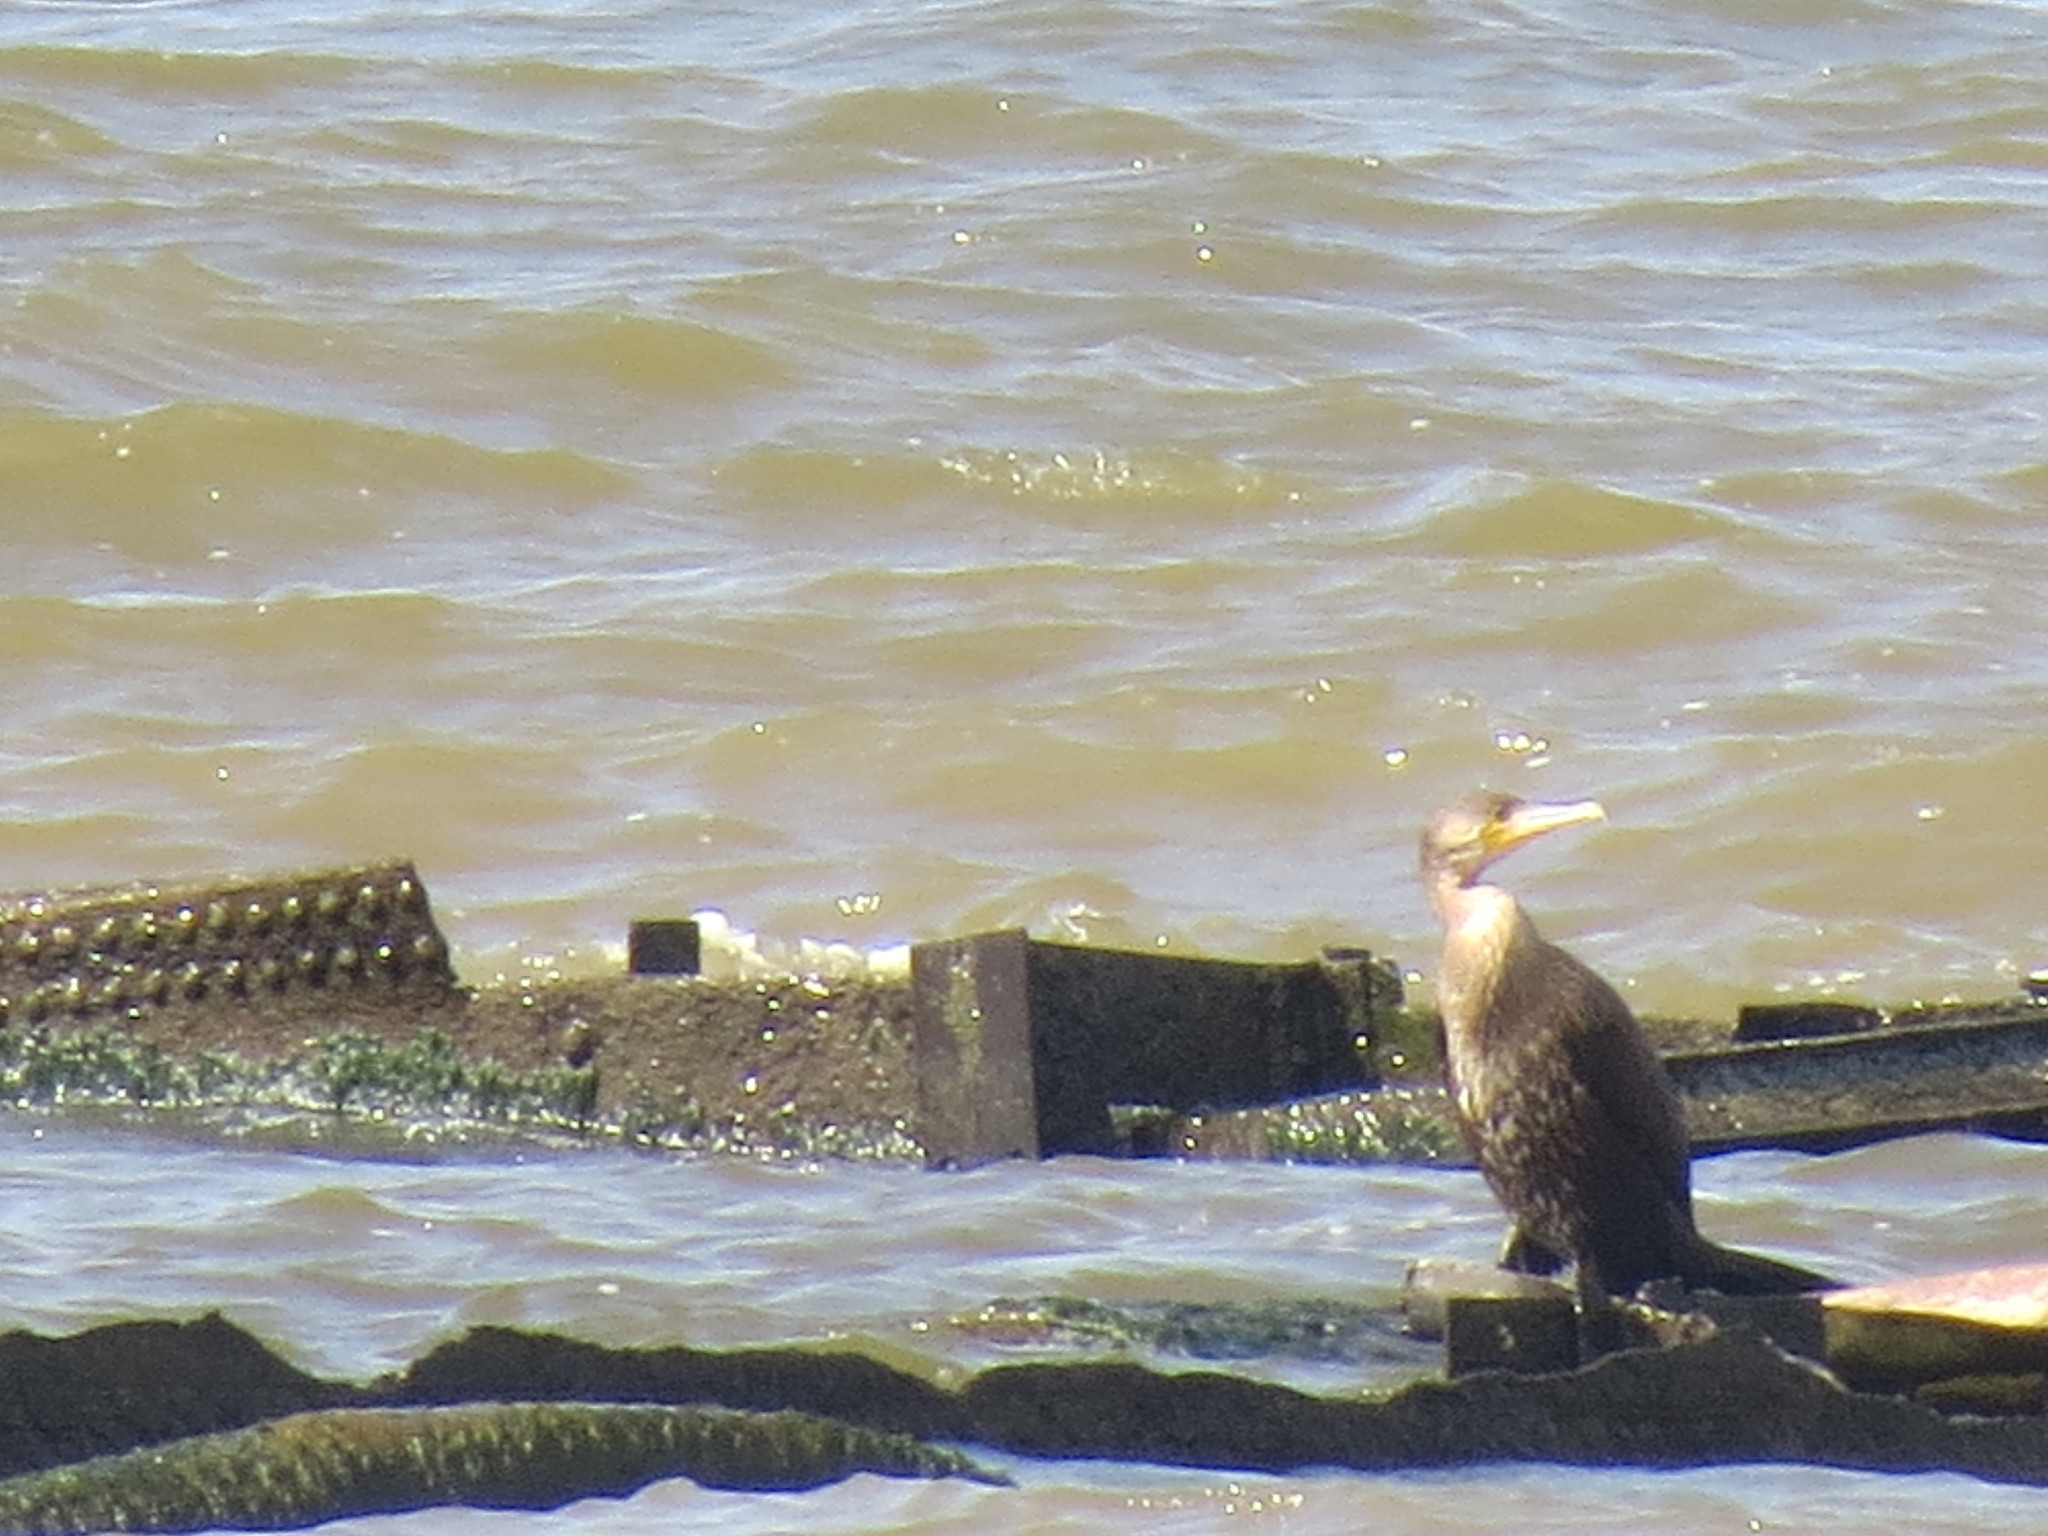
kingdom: Animalia
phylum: Chordata
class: Aves
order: Suliformes
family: Phalacrocoracidae
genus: Phalacrocorax
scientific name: Phalacrocorax carbo
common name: Great cormorant
